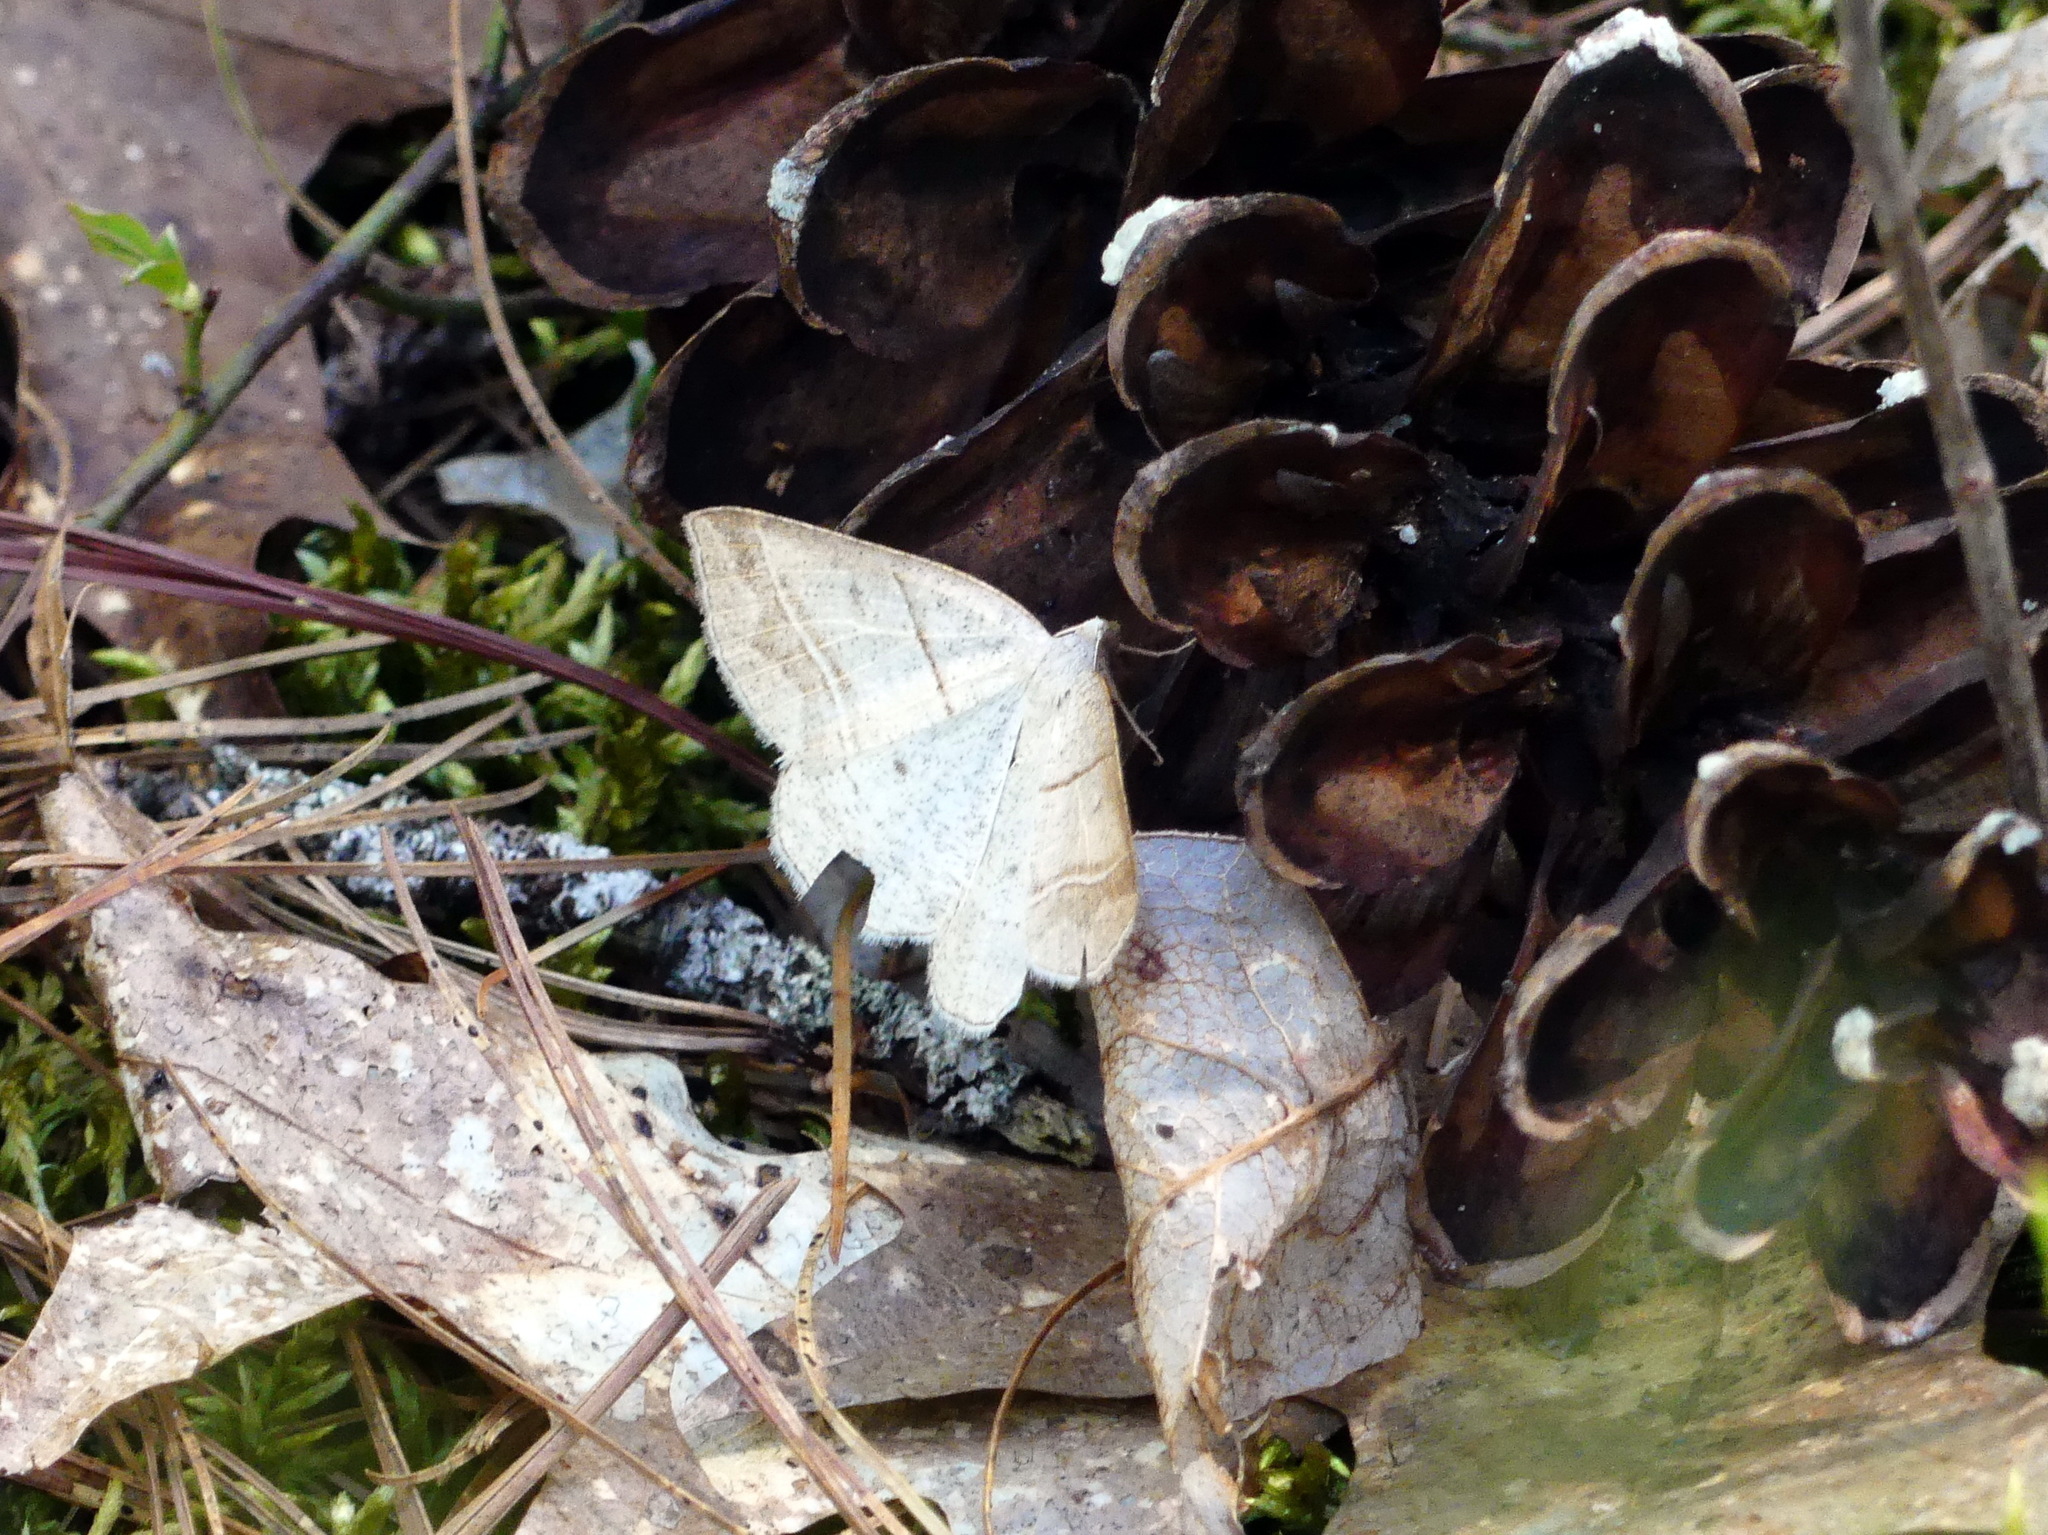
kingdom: Animalia
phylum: Arthropoda
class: Insecta
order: Lepidoptera
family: Pterophoridae
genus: Pterophorus
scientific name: Pterophorus Petrophora subaequaria
